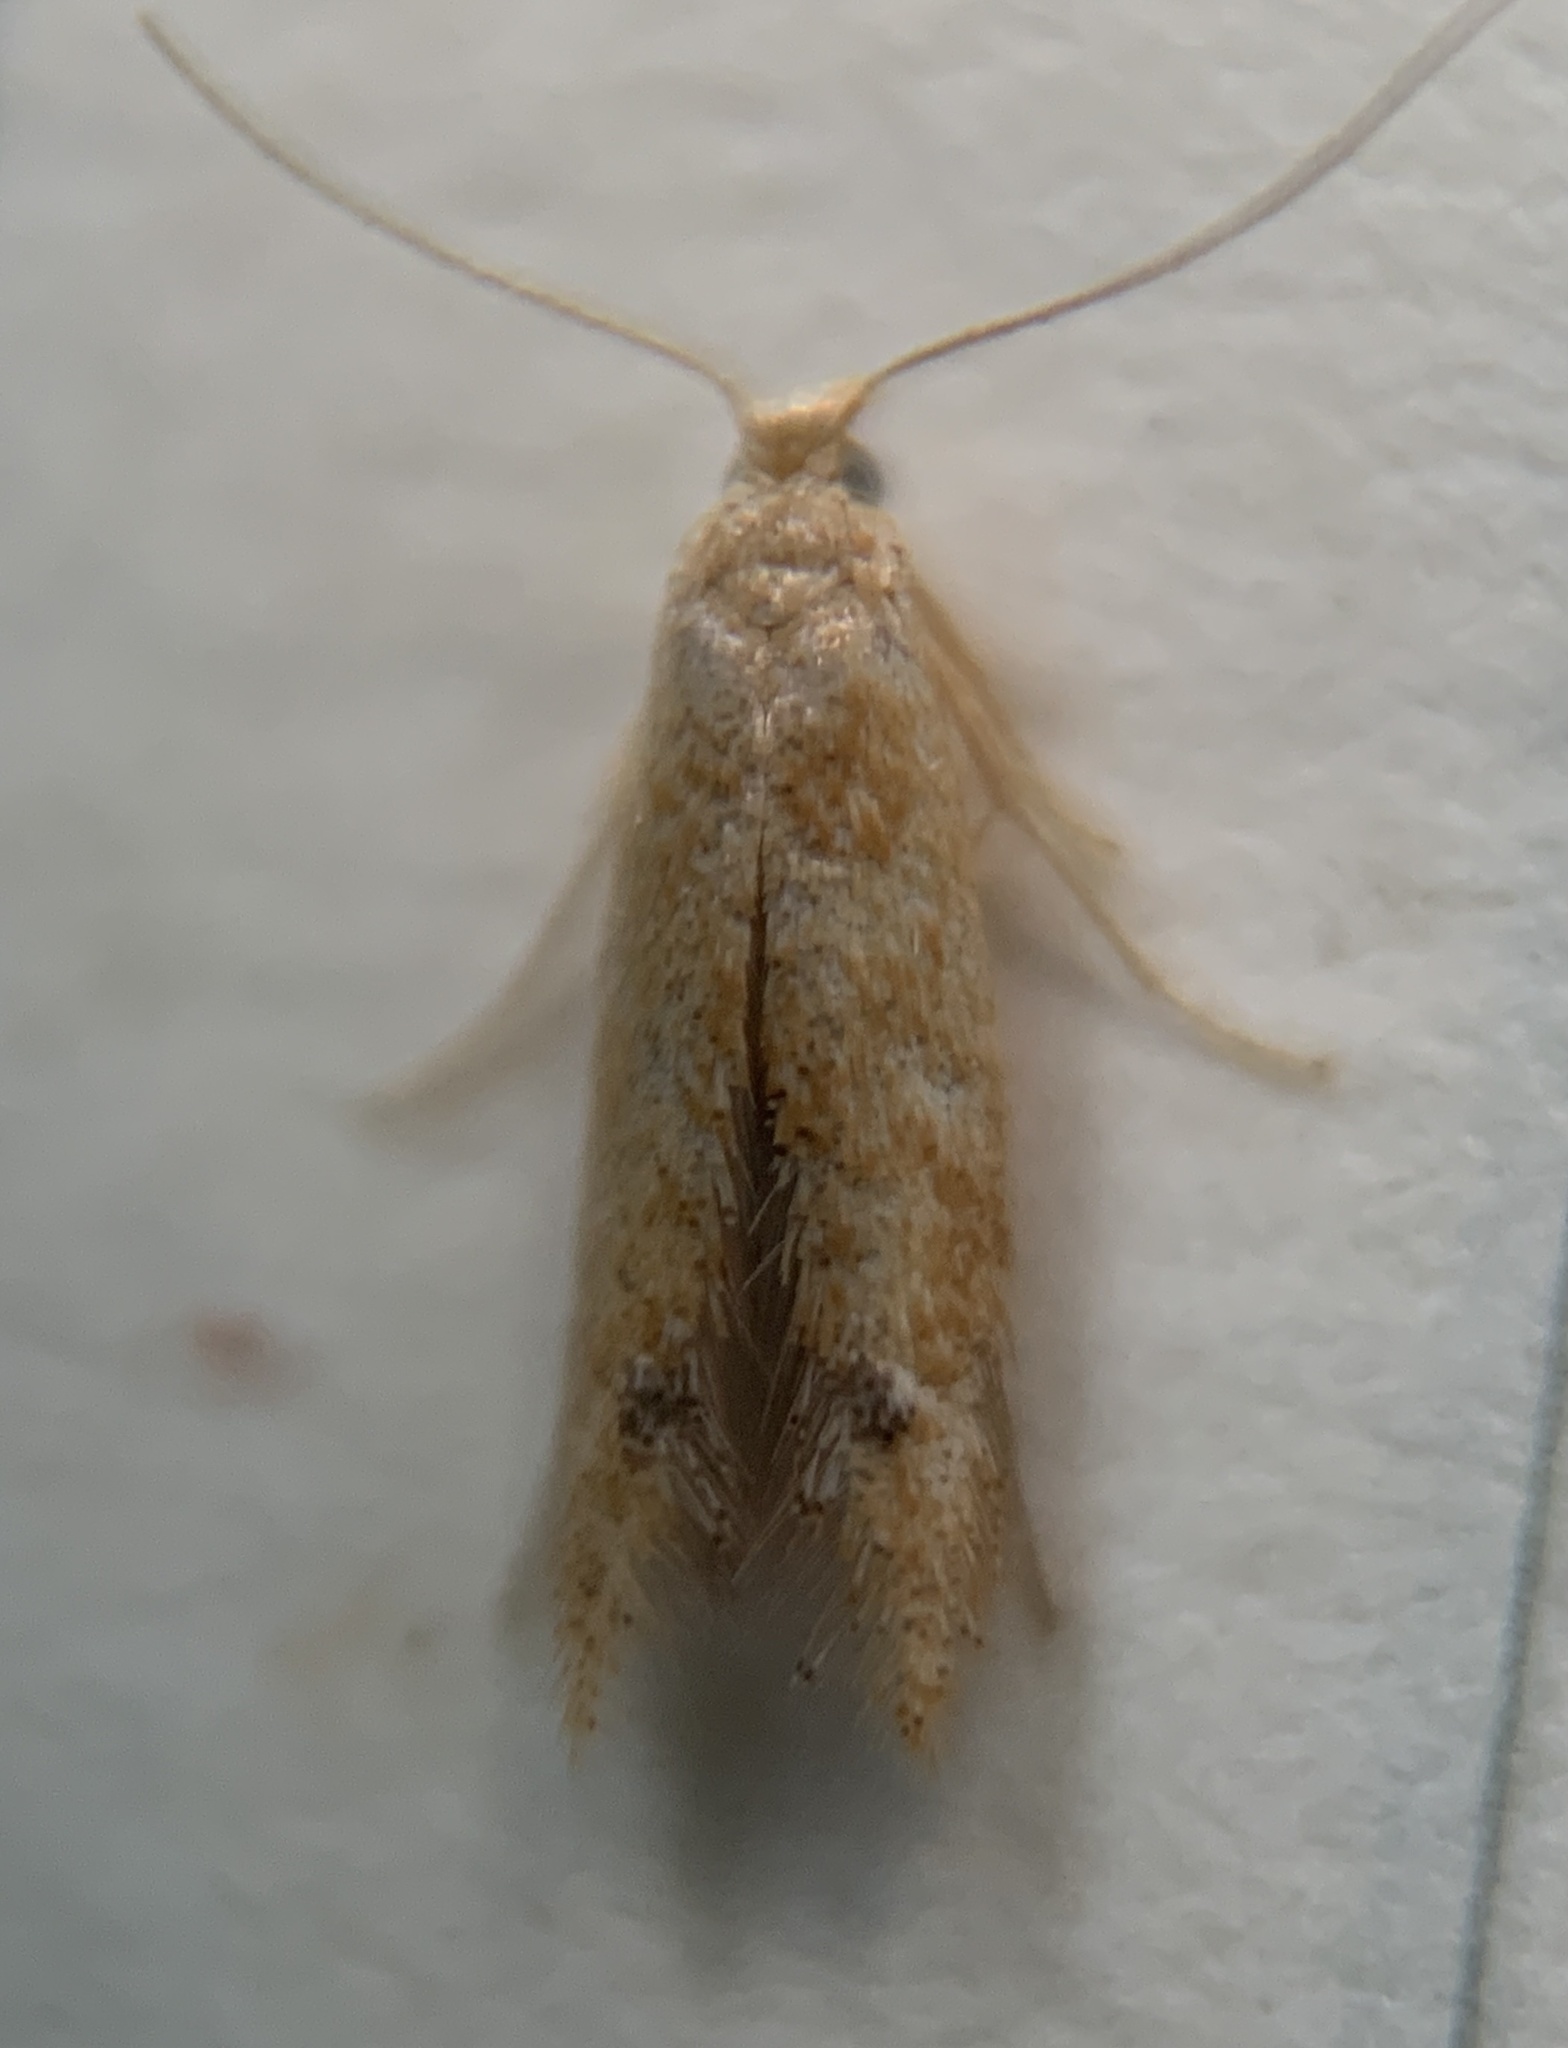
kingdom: Animalia
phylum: Arthropoda
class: Insecta
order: Lepidoptera
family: Tischeriidae
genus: Tischeria
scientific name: Tischeria quercitella
